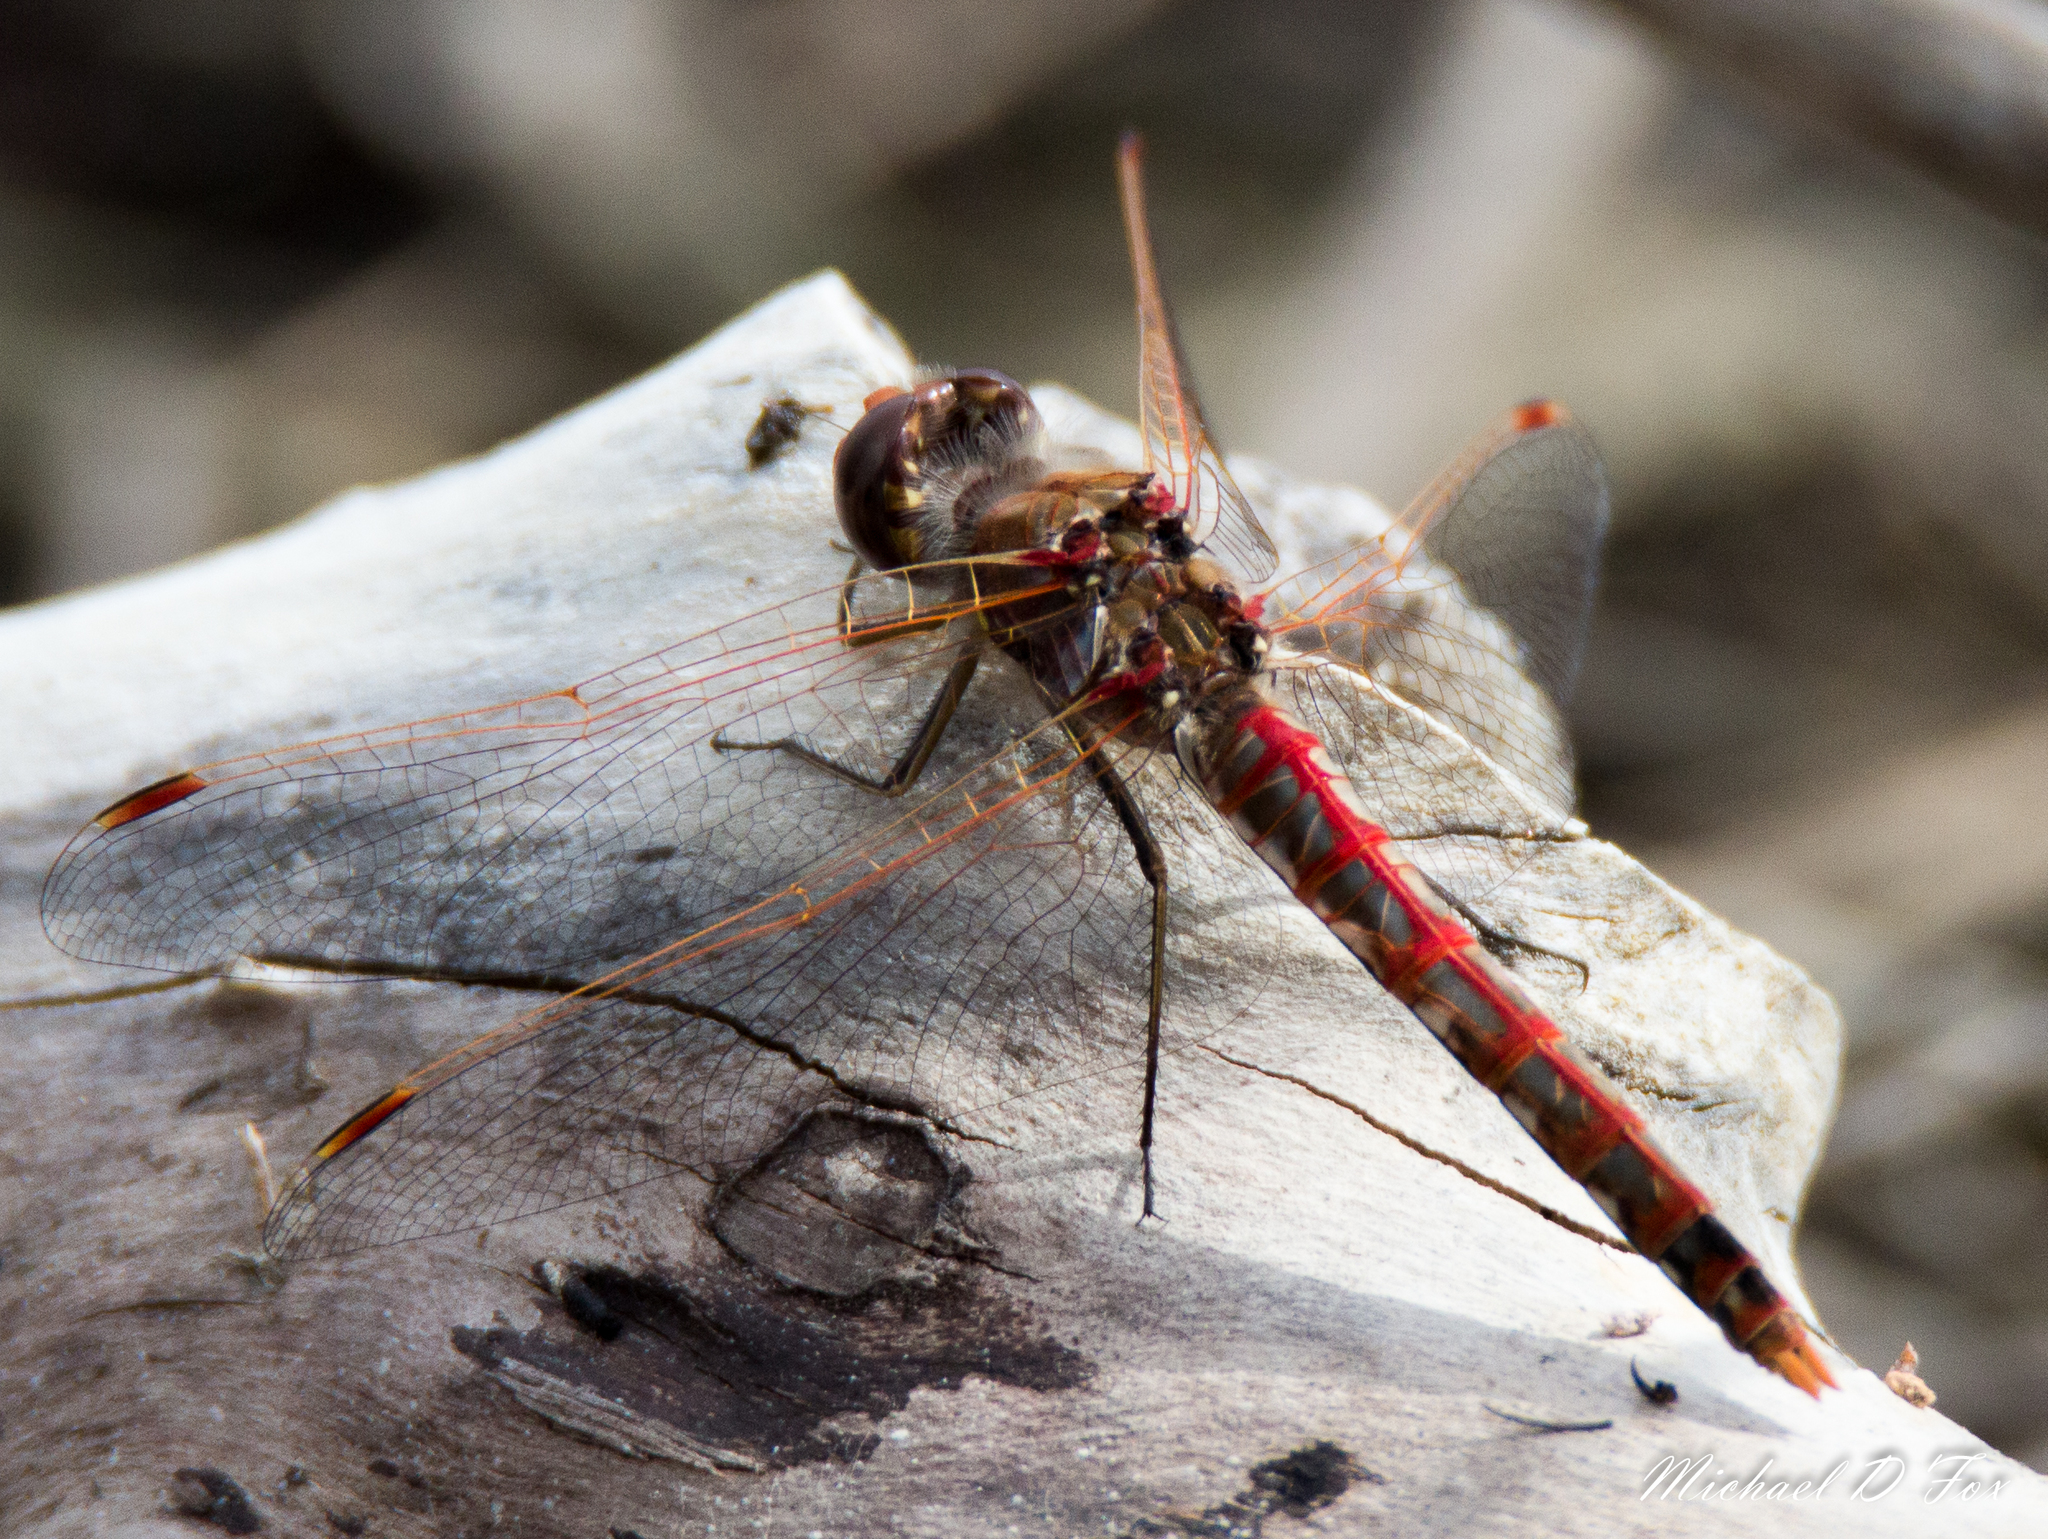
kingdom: Animalia
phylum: Arthropoda
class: Insecta
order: Odonata
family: Libellulidae
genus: Sympetrum
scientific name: Sympetrum corruptum
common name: Variegated meadowhawk
